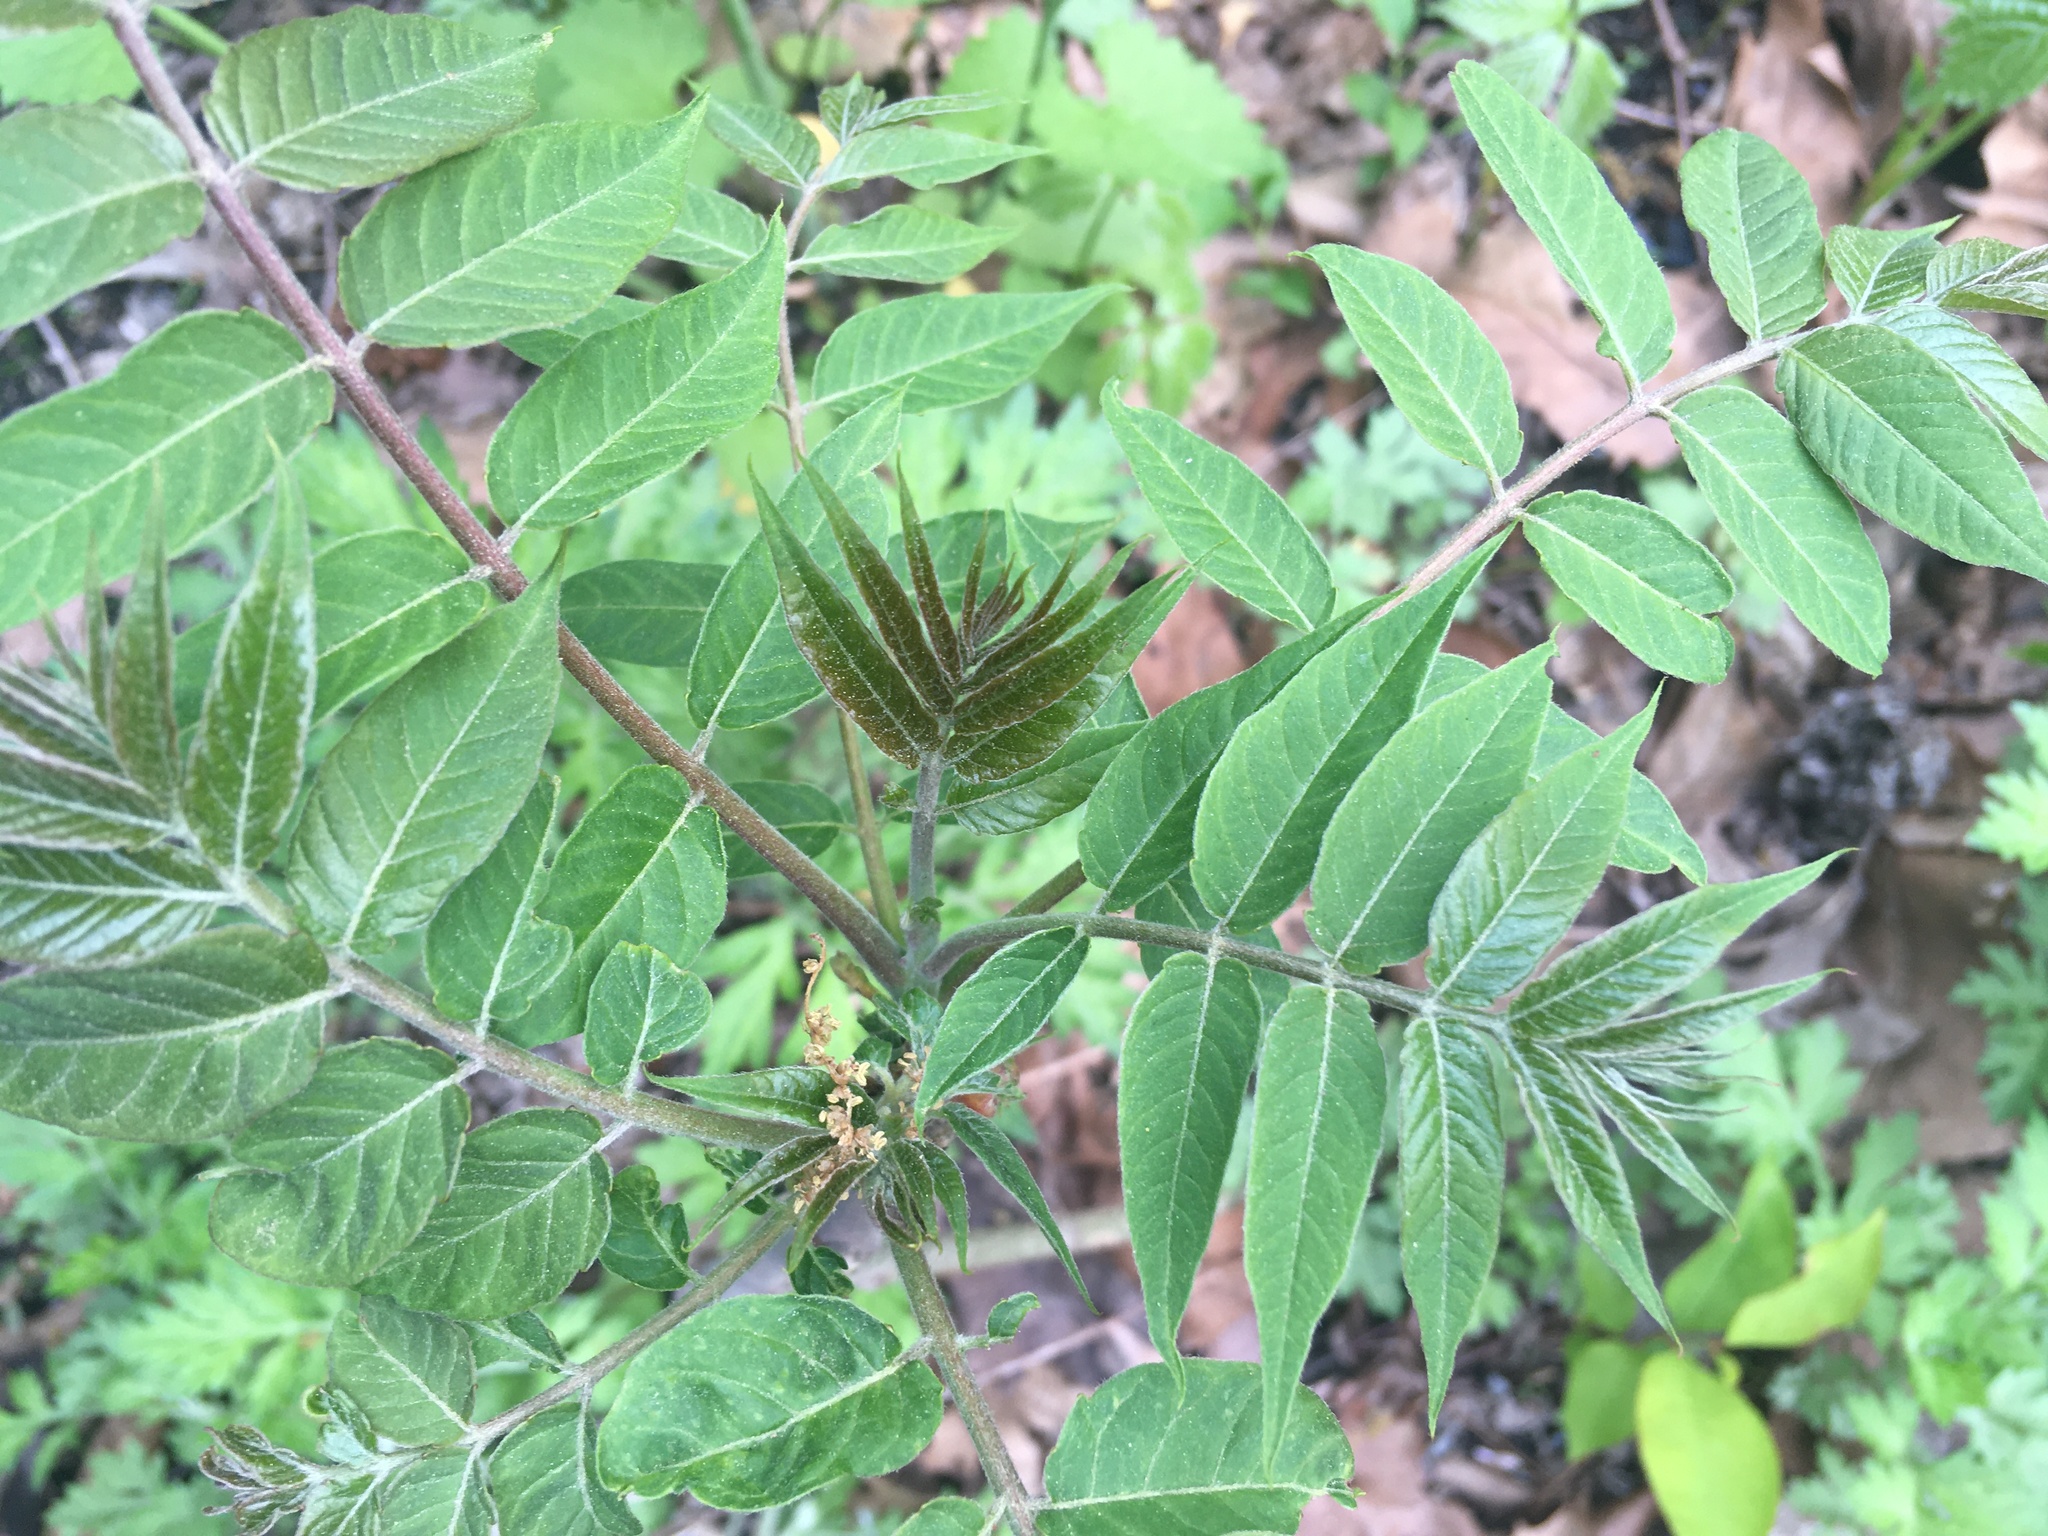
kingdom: Plantae
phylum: Tracheophyta
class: Magnoliopsida
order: Sapindales
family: Simaroubaceae
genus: Ailanthus
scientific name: Ailanthus altissima
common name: Tree-of-heaven
